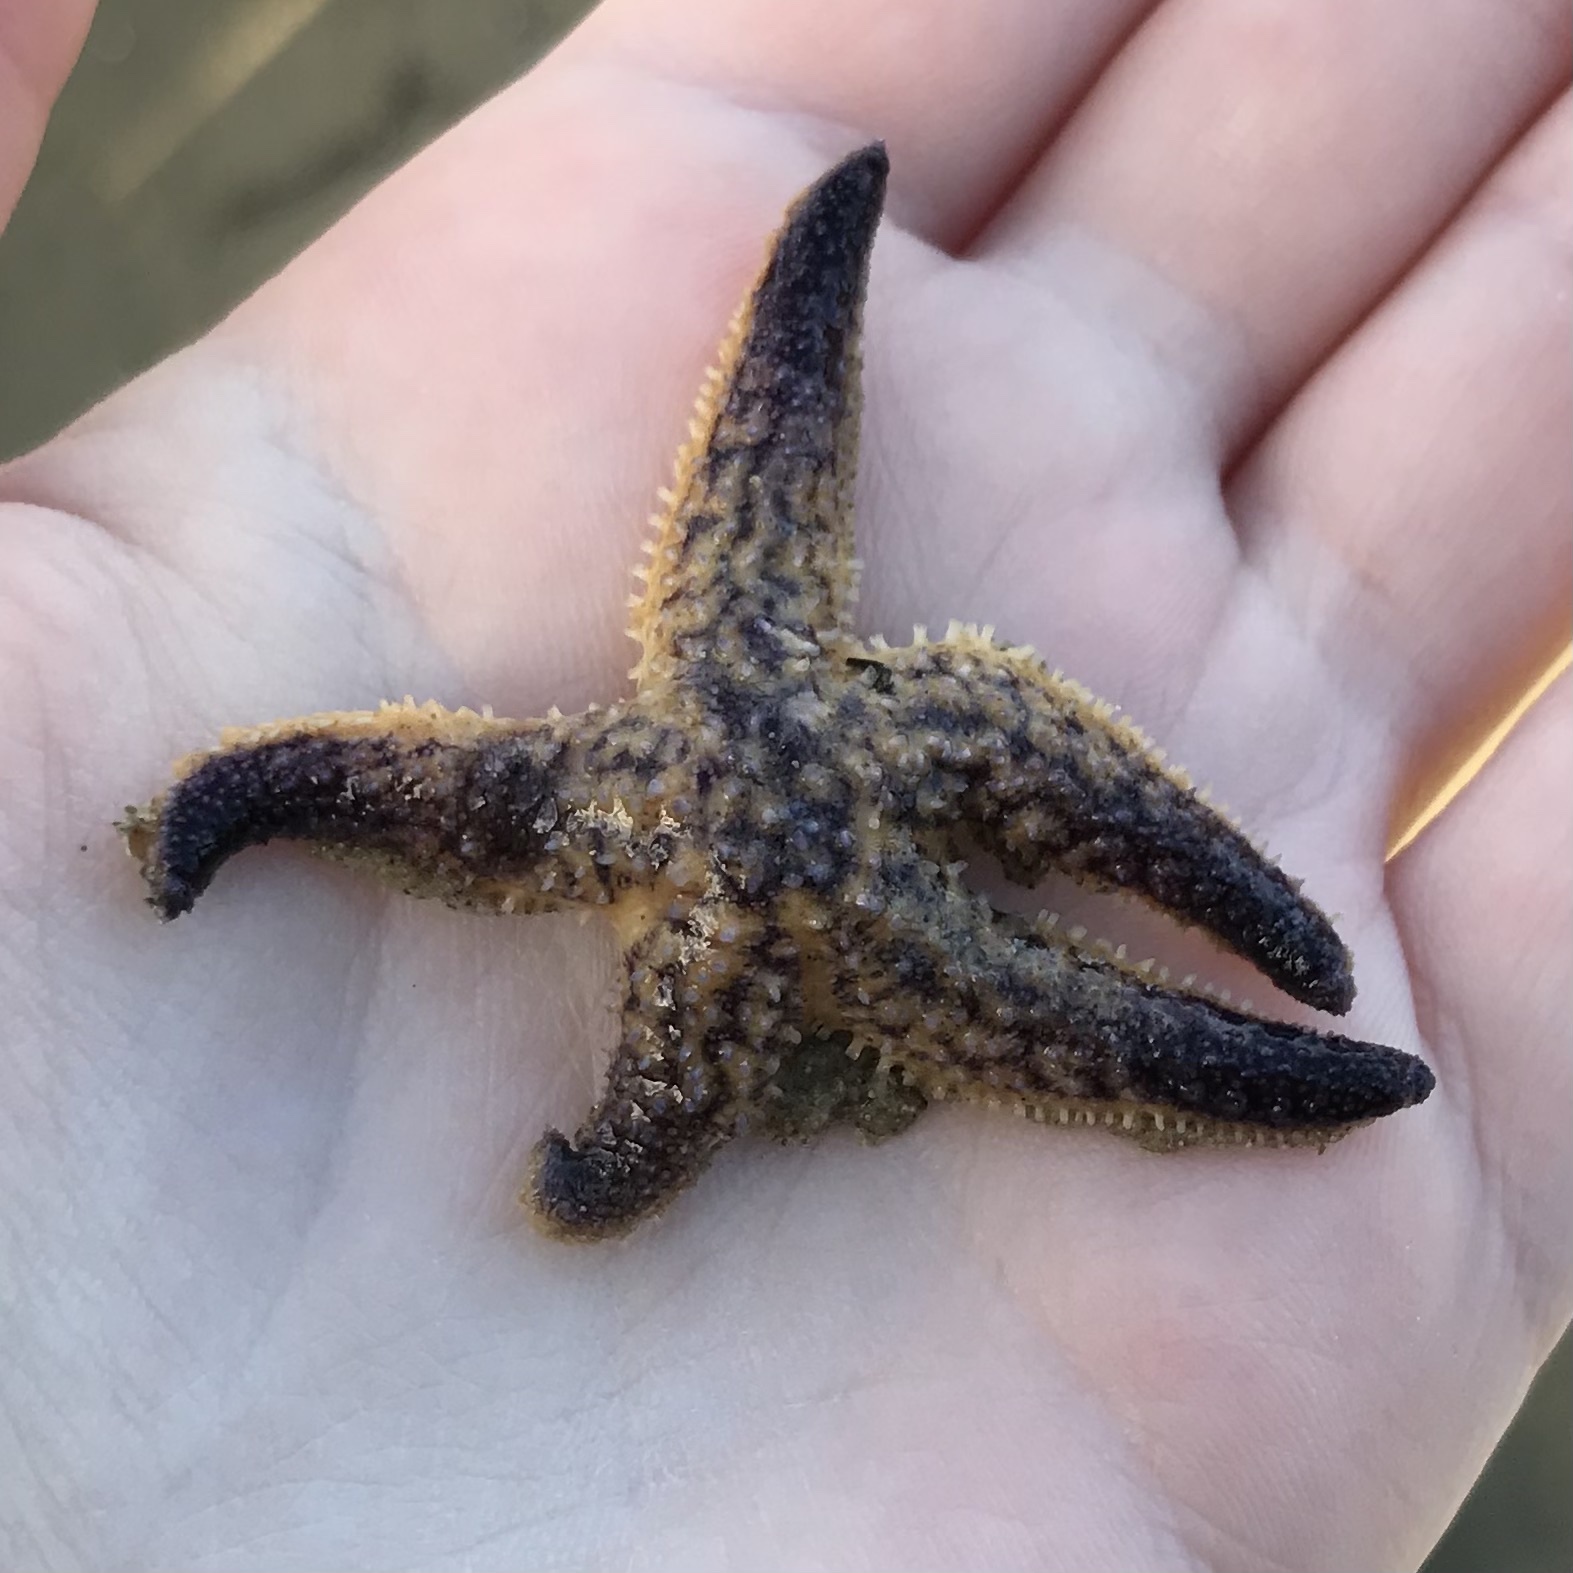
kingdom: Animalia
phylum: Echinodermata
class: Asteroidea
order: Forcipulatida
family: Asteriidae
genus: Asterias
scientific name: Asterias amurensis
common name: Flat-bottomed star
